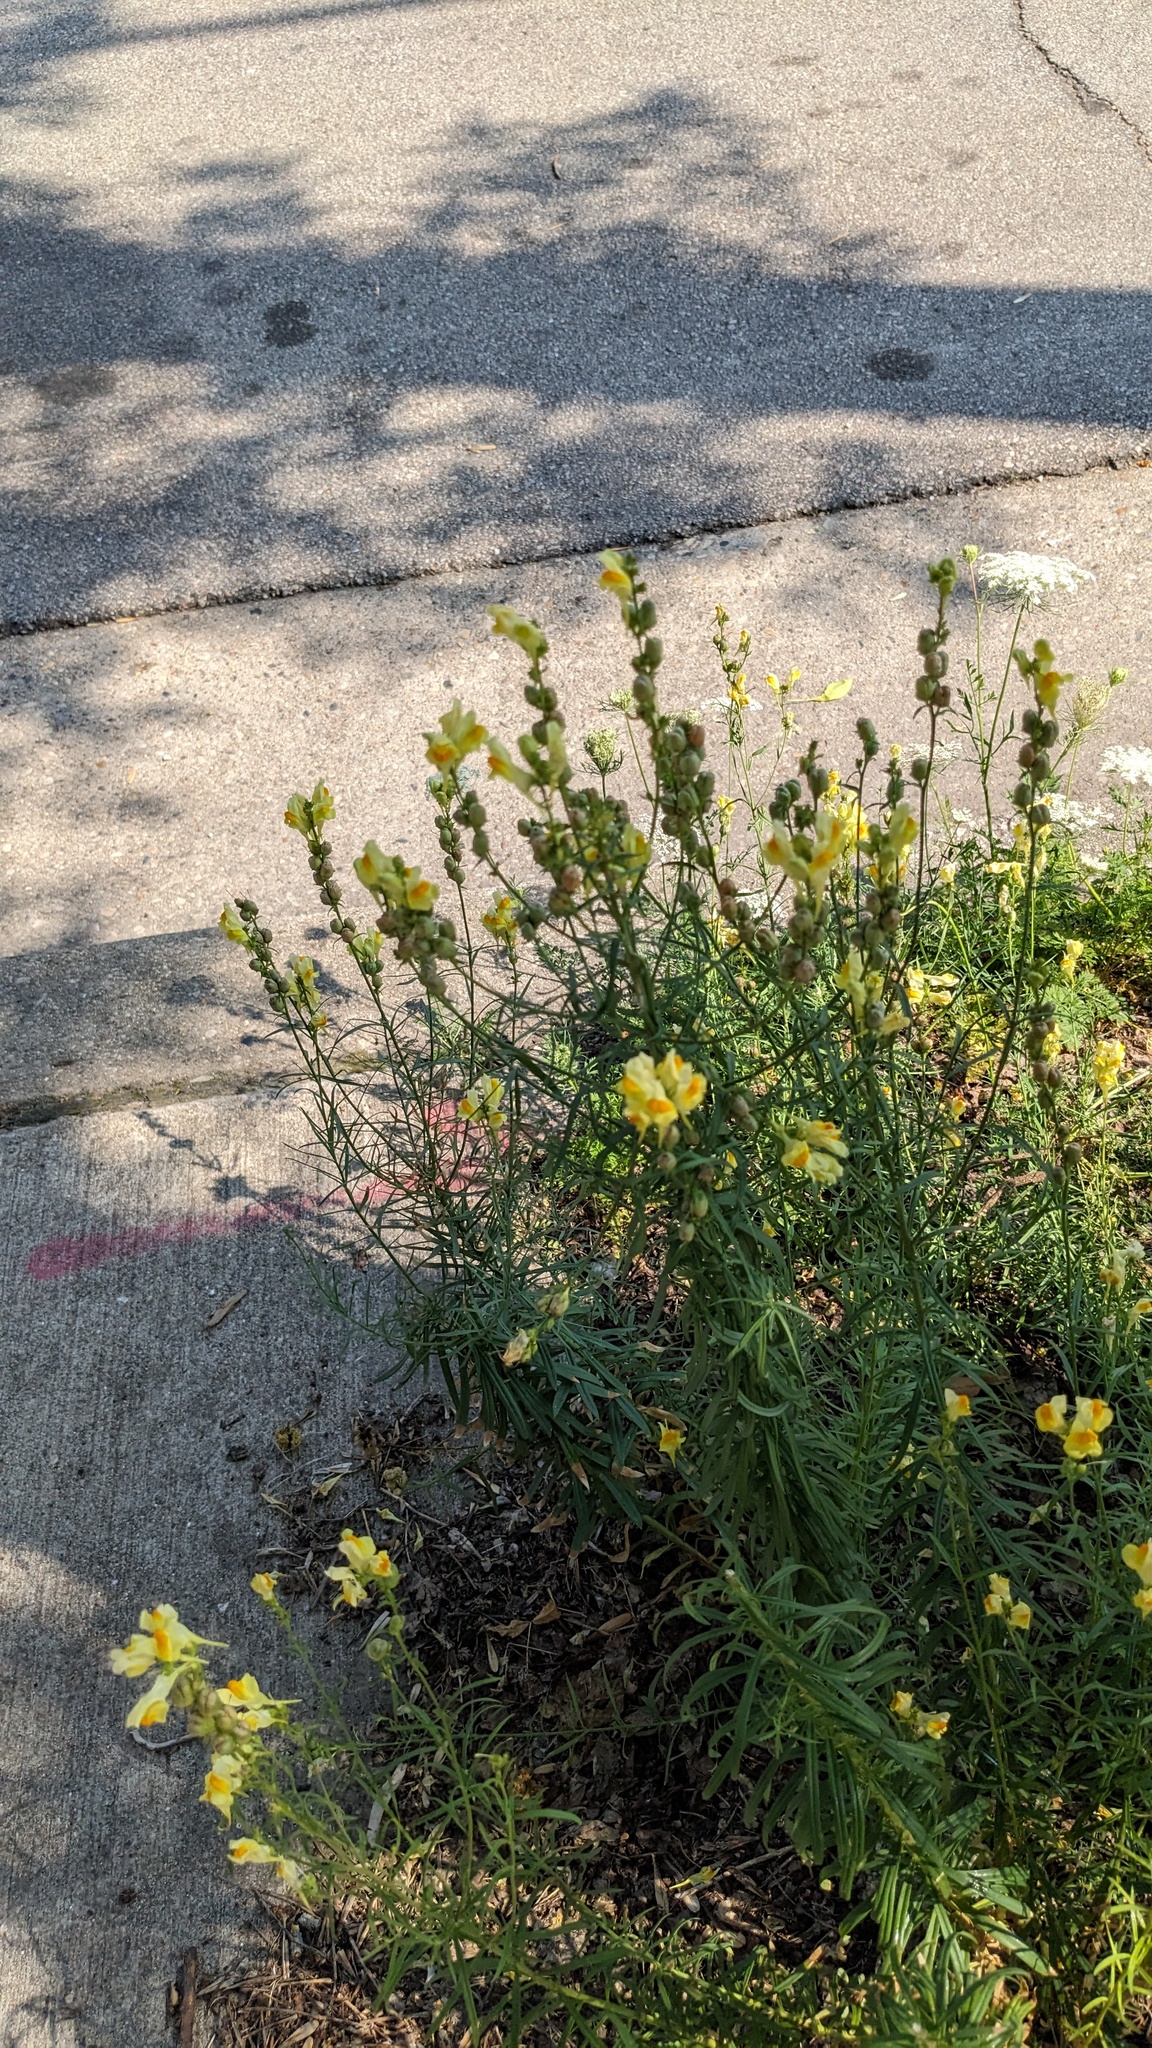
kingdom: Plantae
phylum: Tracheophyta
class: Magnoliopsida
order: Lamiales
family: Plantaginaceae
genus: Linaria
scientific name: Linaria vulgaris
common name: Butter and eggs
